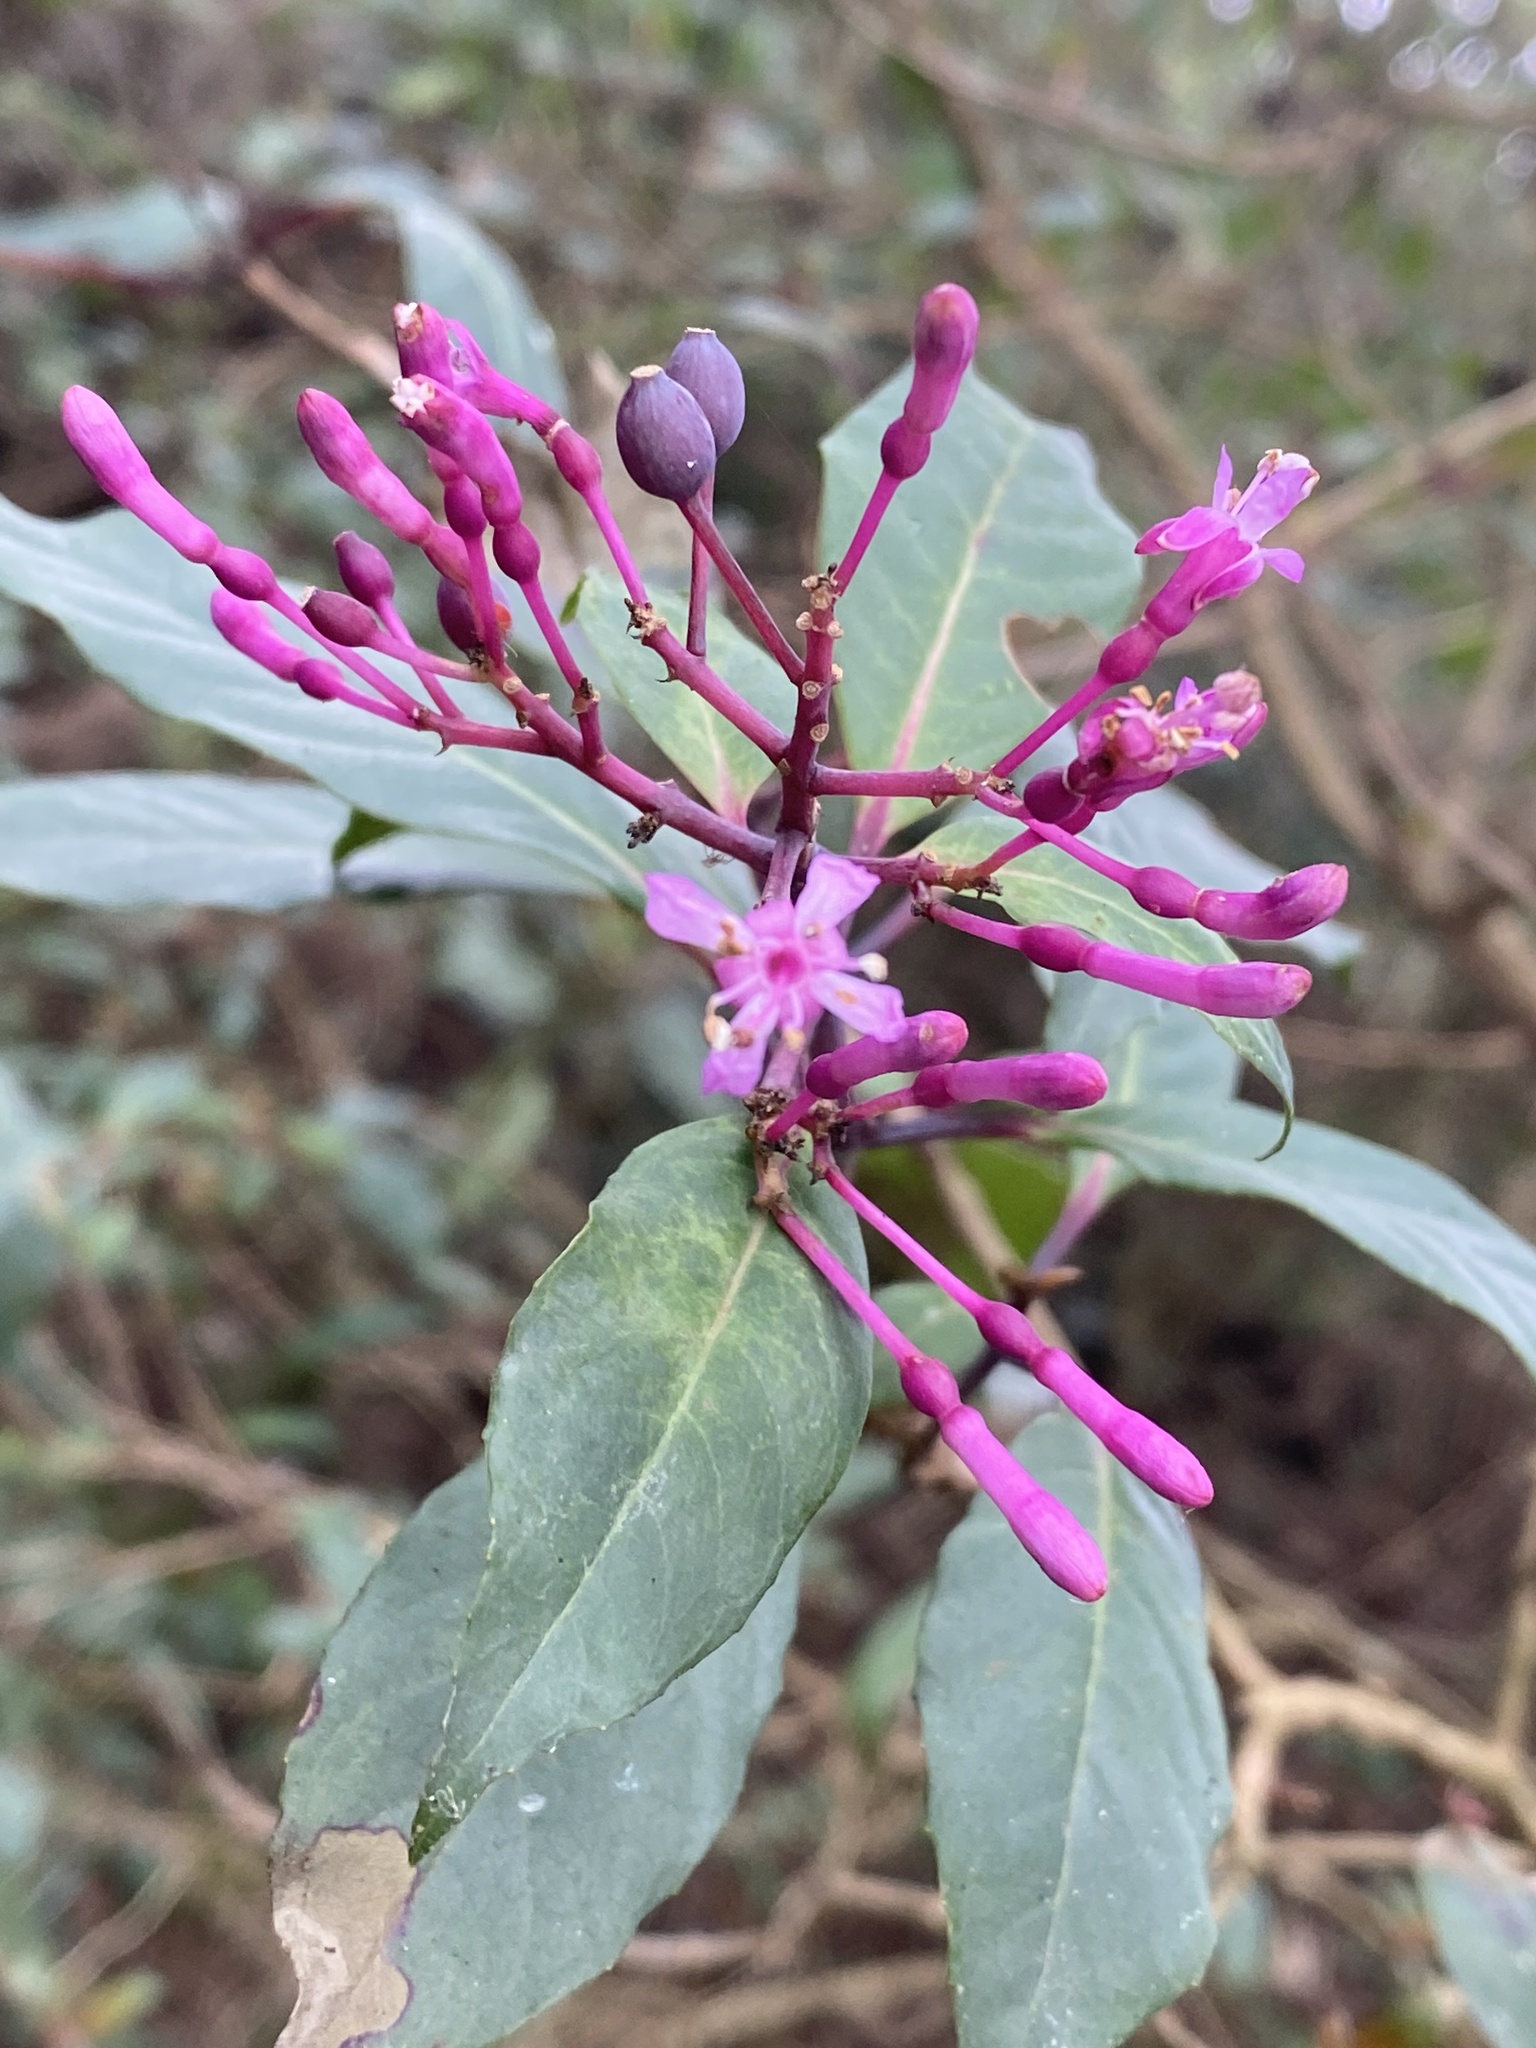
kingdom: Plantae
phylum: Tracheophyta
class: Magnoliopsida
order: Myrtales
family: Onagraceae
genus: Fuchsia
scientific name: Fuchsia paniculata
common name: Shrubby fuchsia
